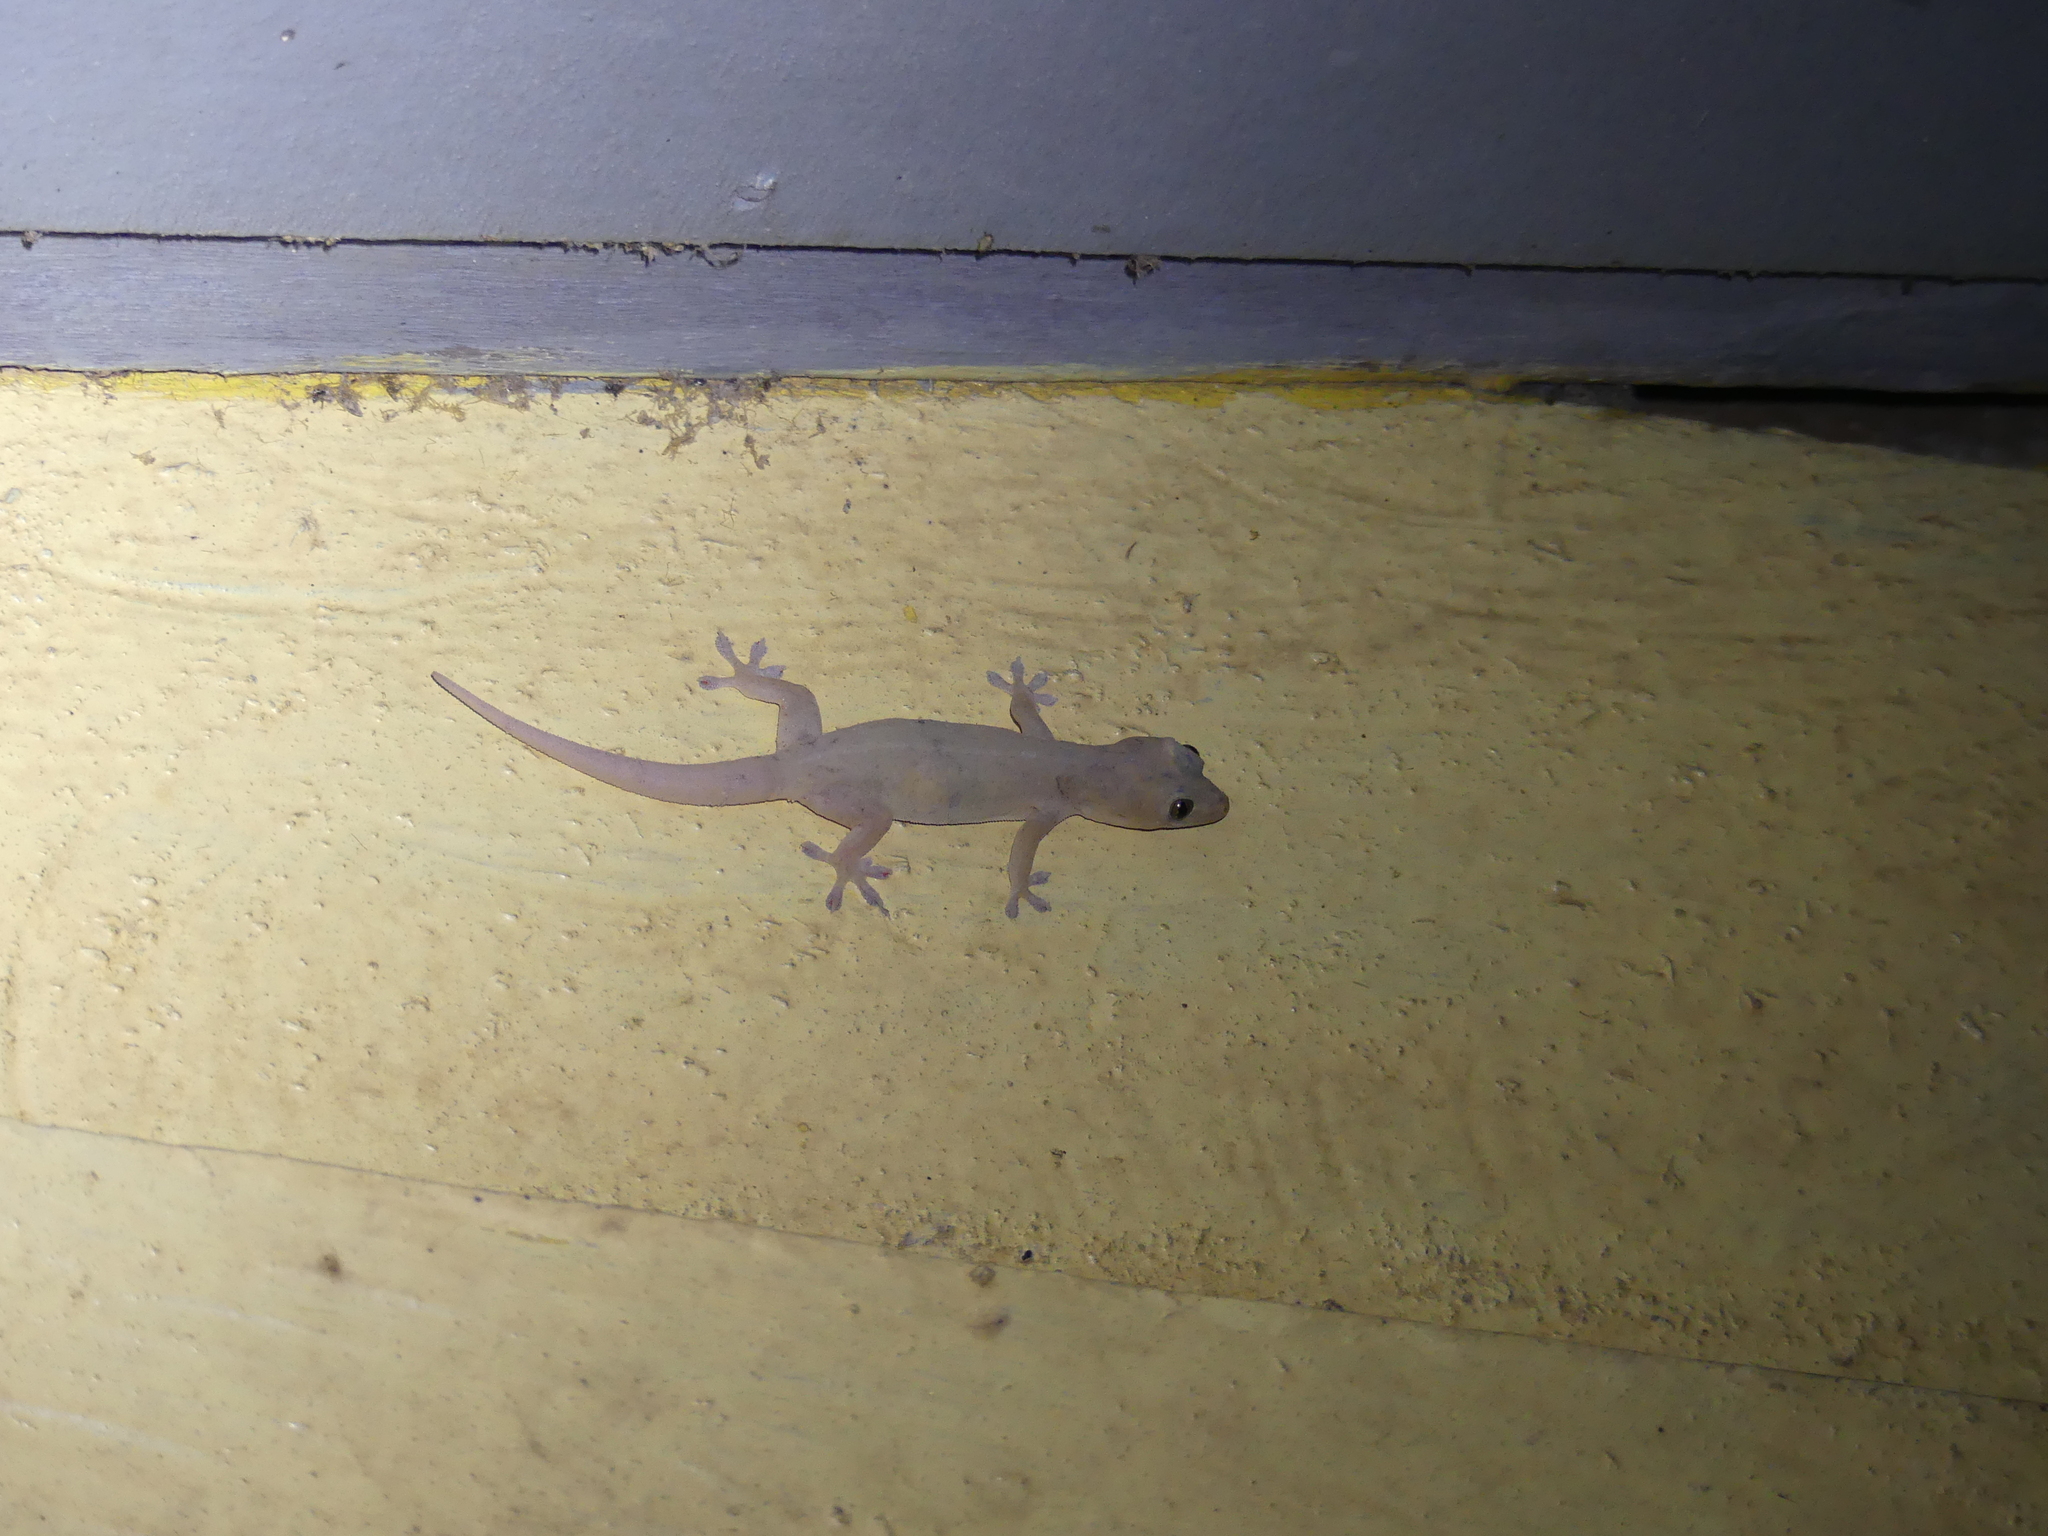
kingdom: Animalia
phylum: Chordata
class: Squamata
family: Gekkonidae
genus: Hemidactylus
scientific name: Hemidactylus frenatus
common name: Common house gecko
